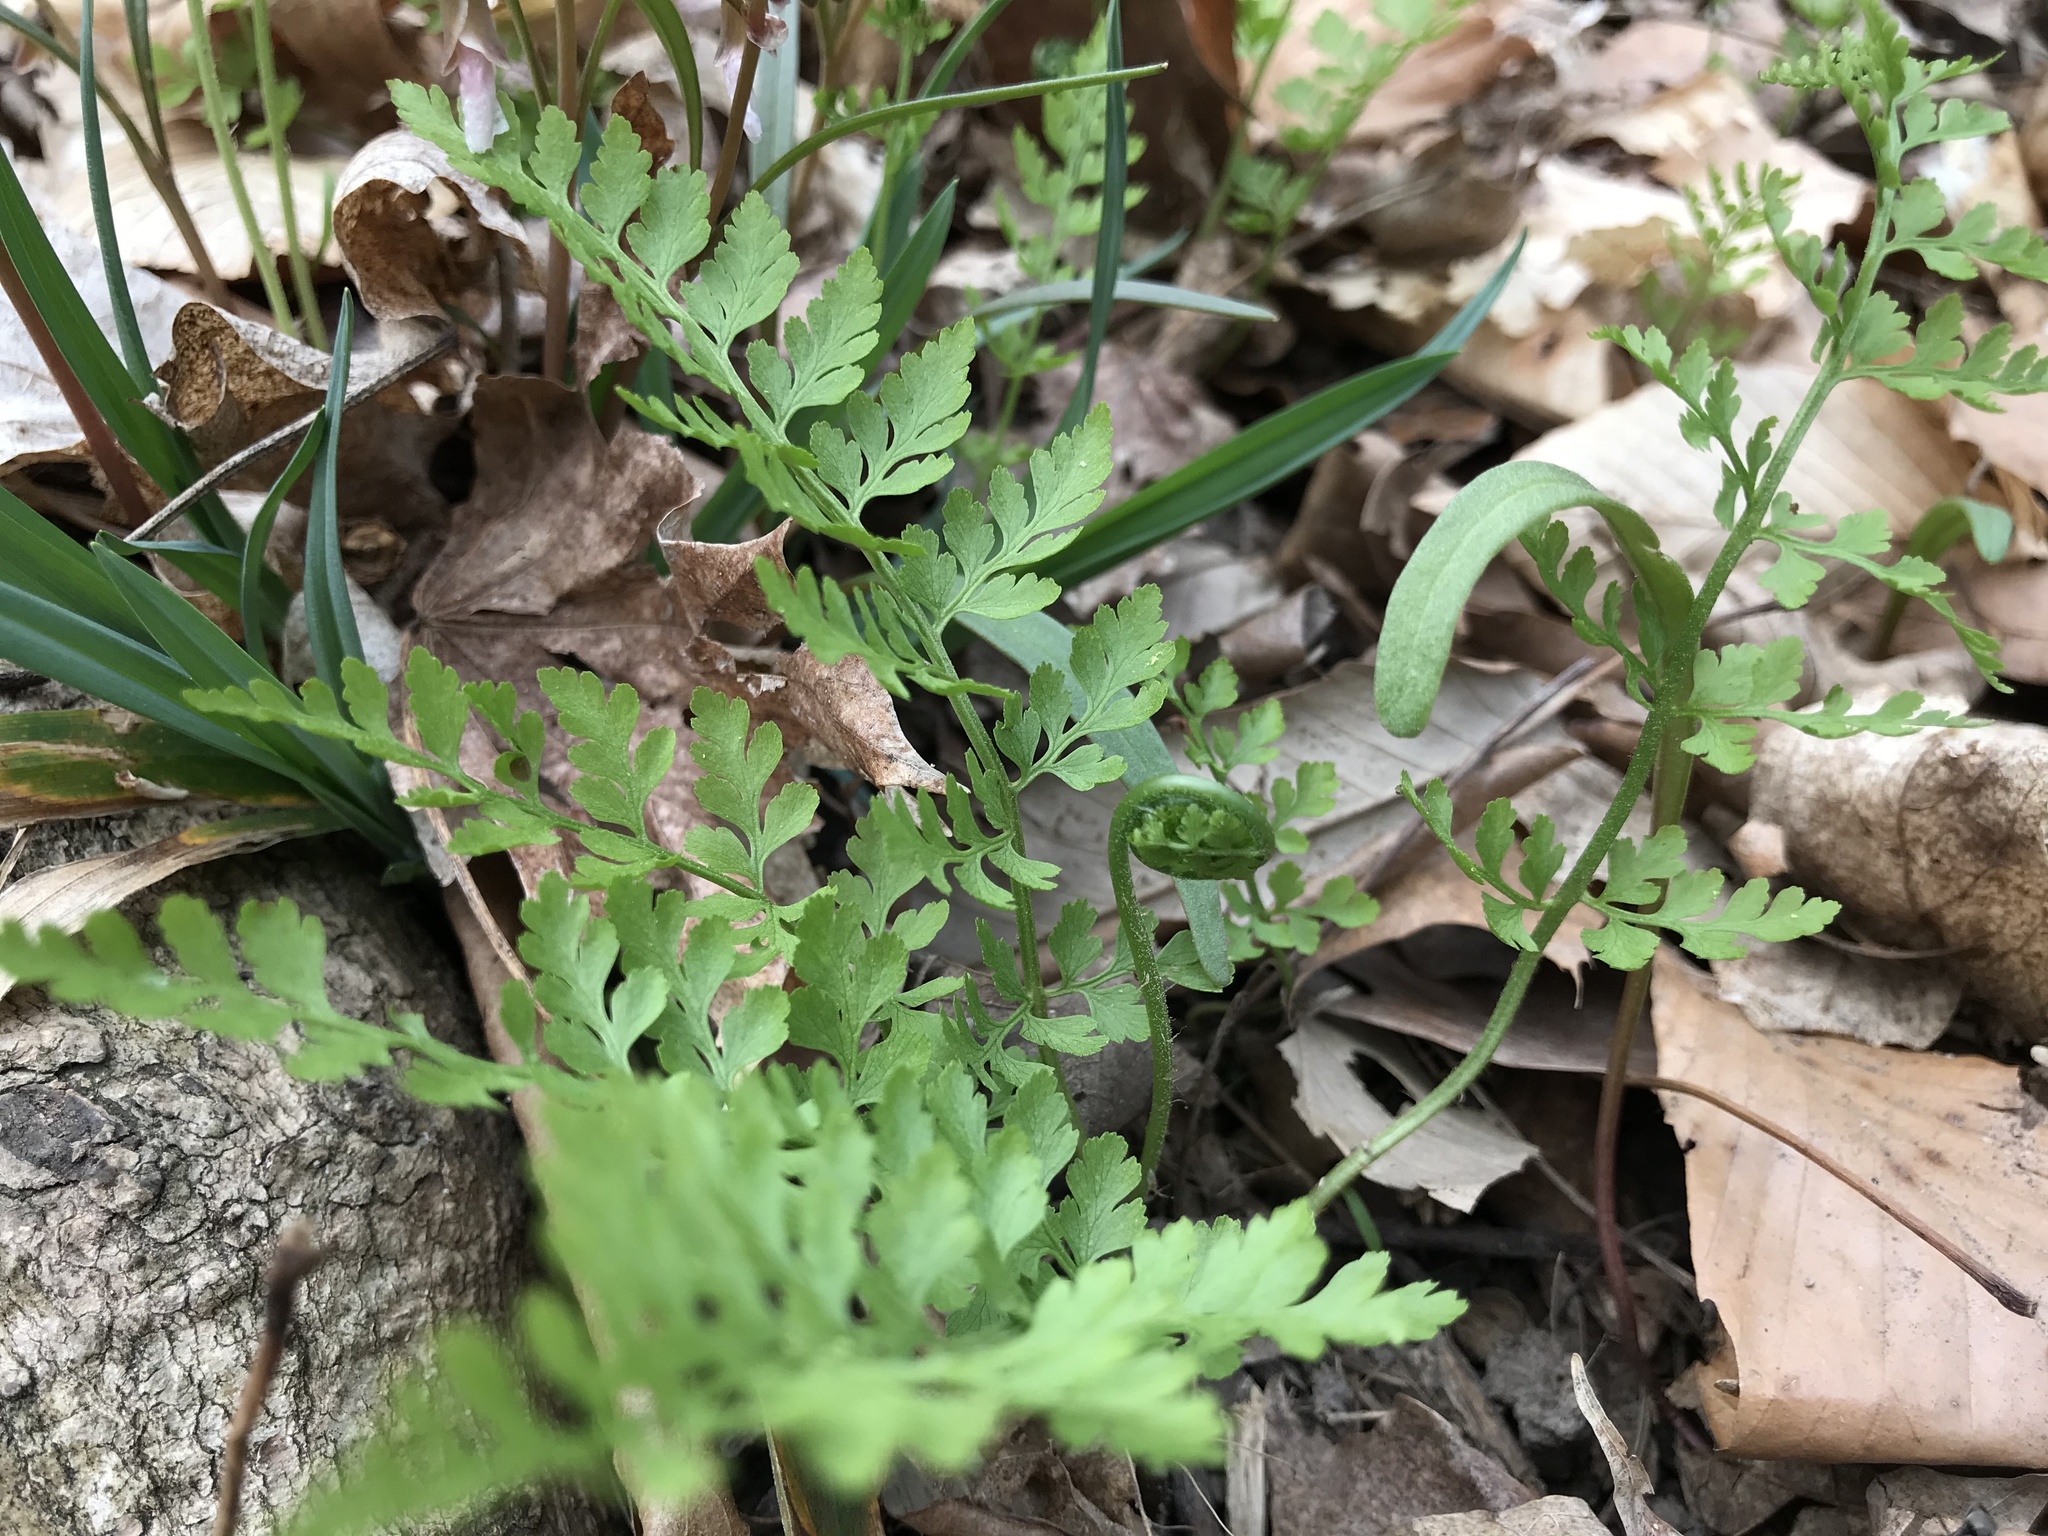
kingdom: Plantae
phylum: Tracheophyta
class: Polypodiopsida
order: Polypodiales
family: Cystopteridaceae
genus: Cystopteris
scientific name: Cystopteris protrusa
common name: Lowland brittle fern
